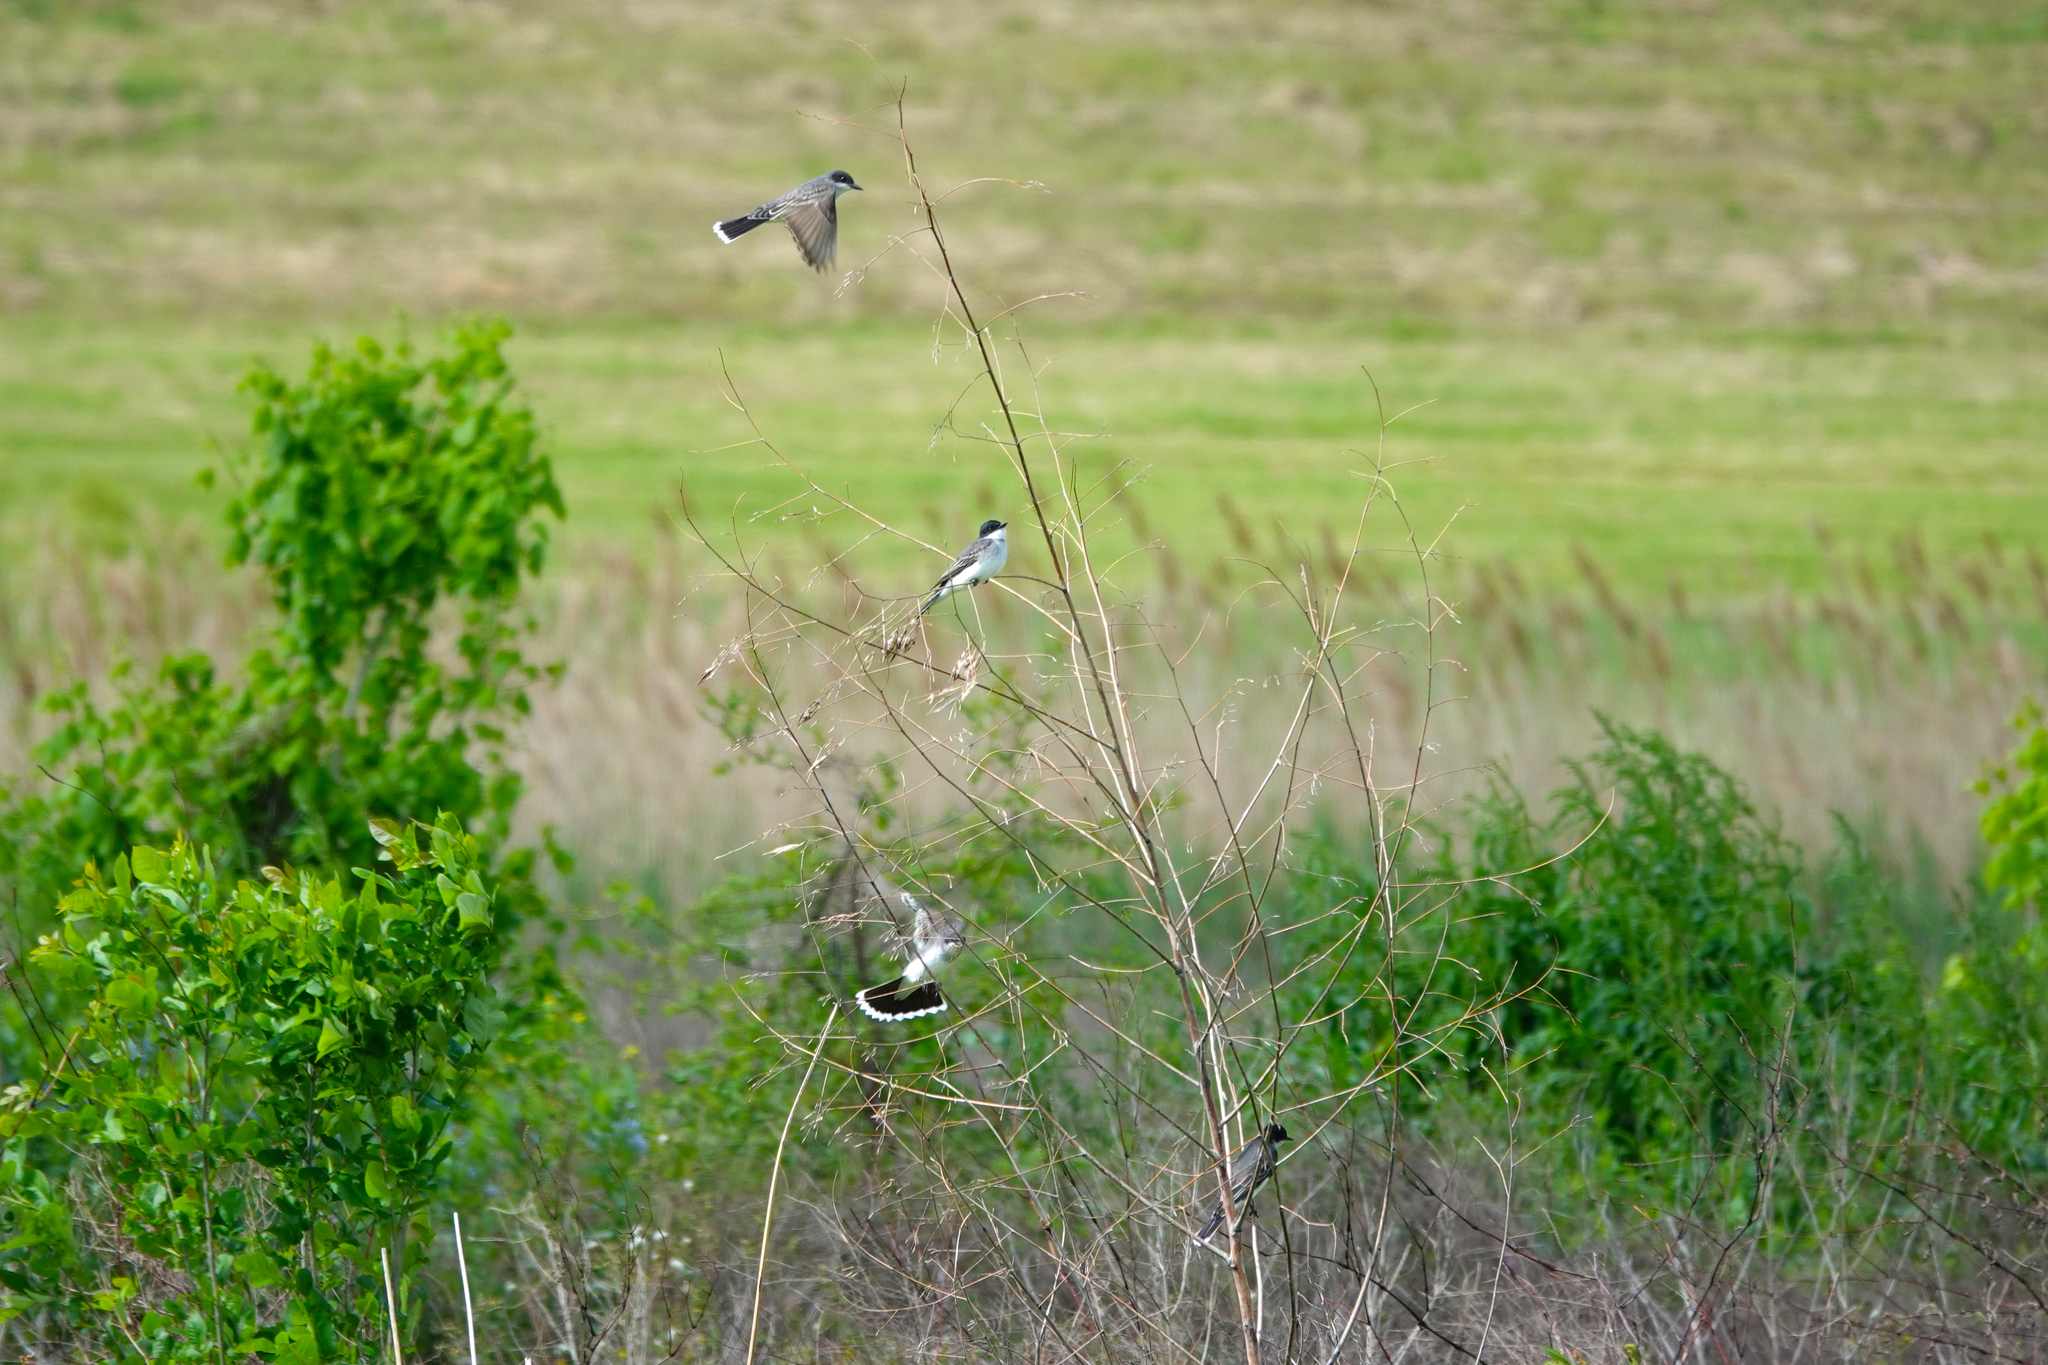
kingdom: Animalia
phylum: Chordata
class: Aves
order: Passeriformes
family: Tyrannidae
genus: Tyrannus
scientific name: Tyrannus tyrannus
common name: Eastern kingbird
